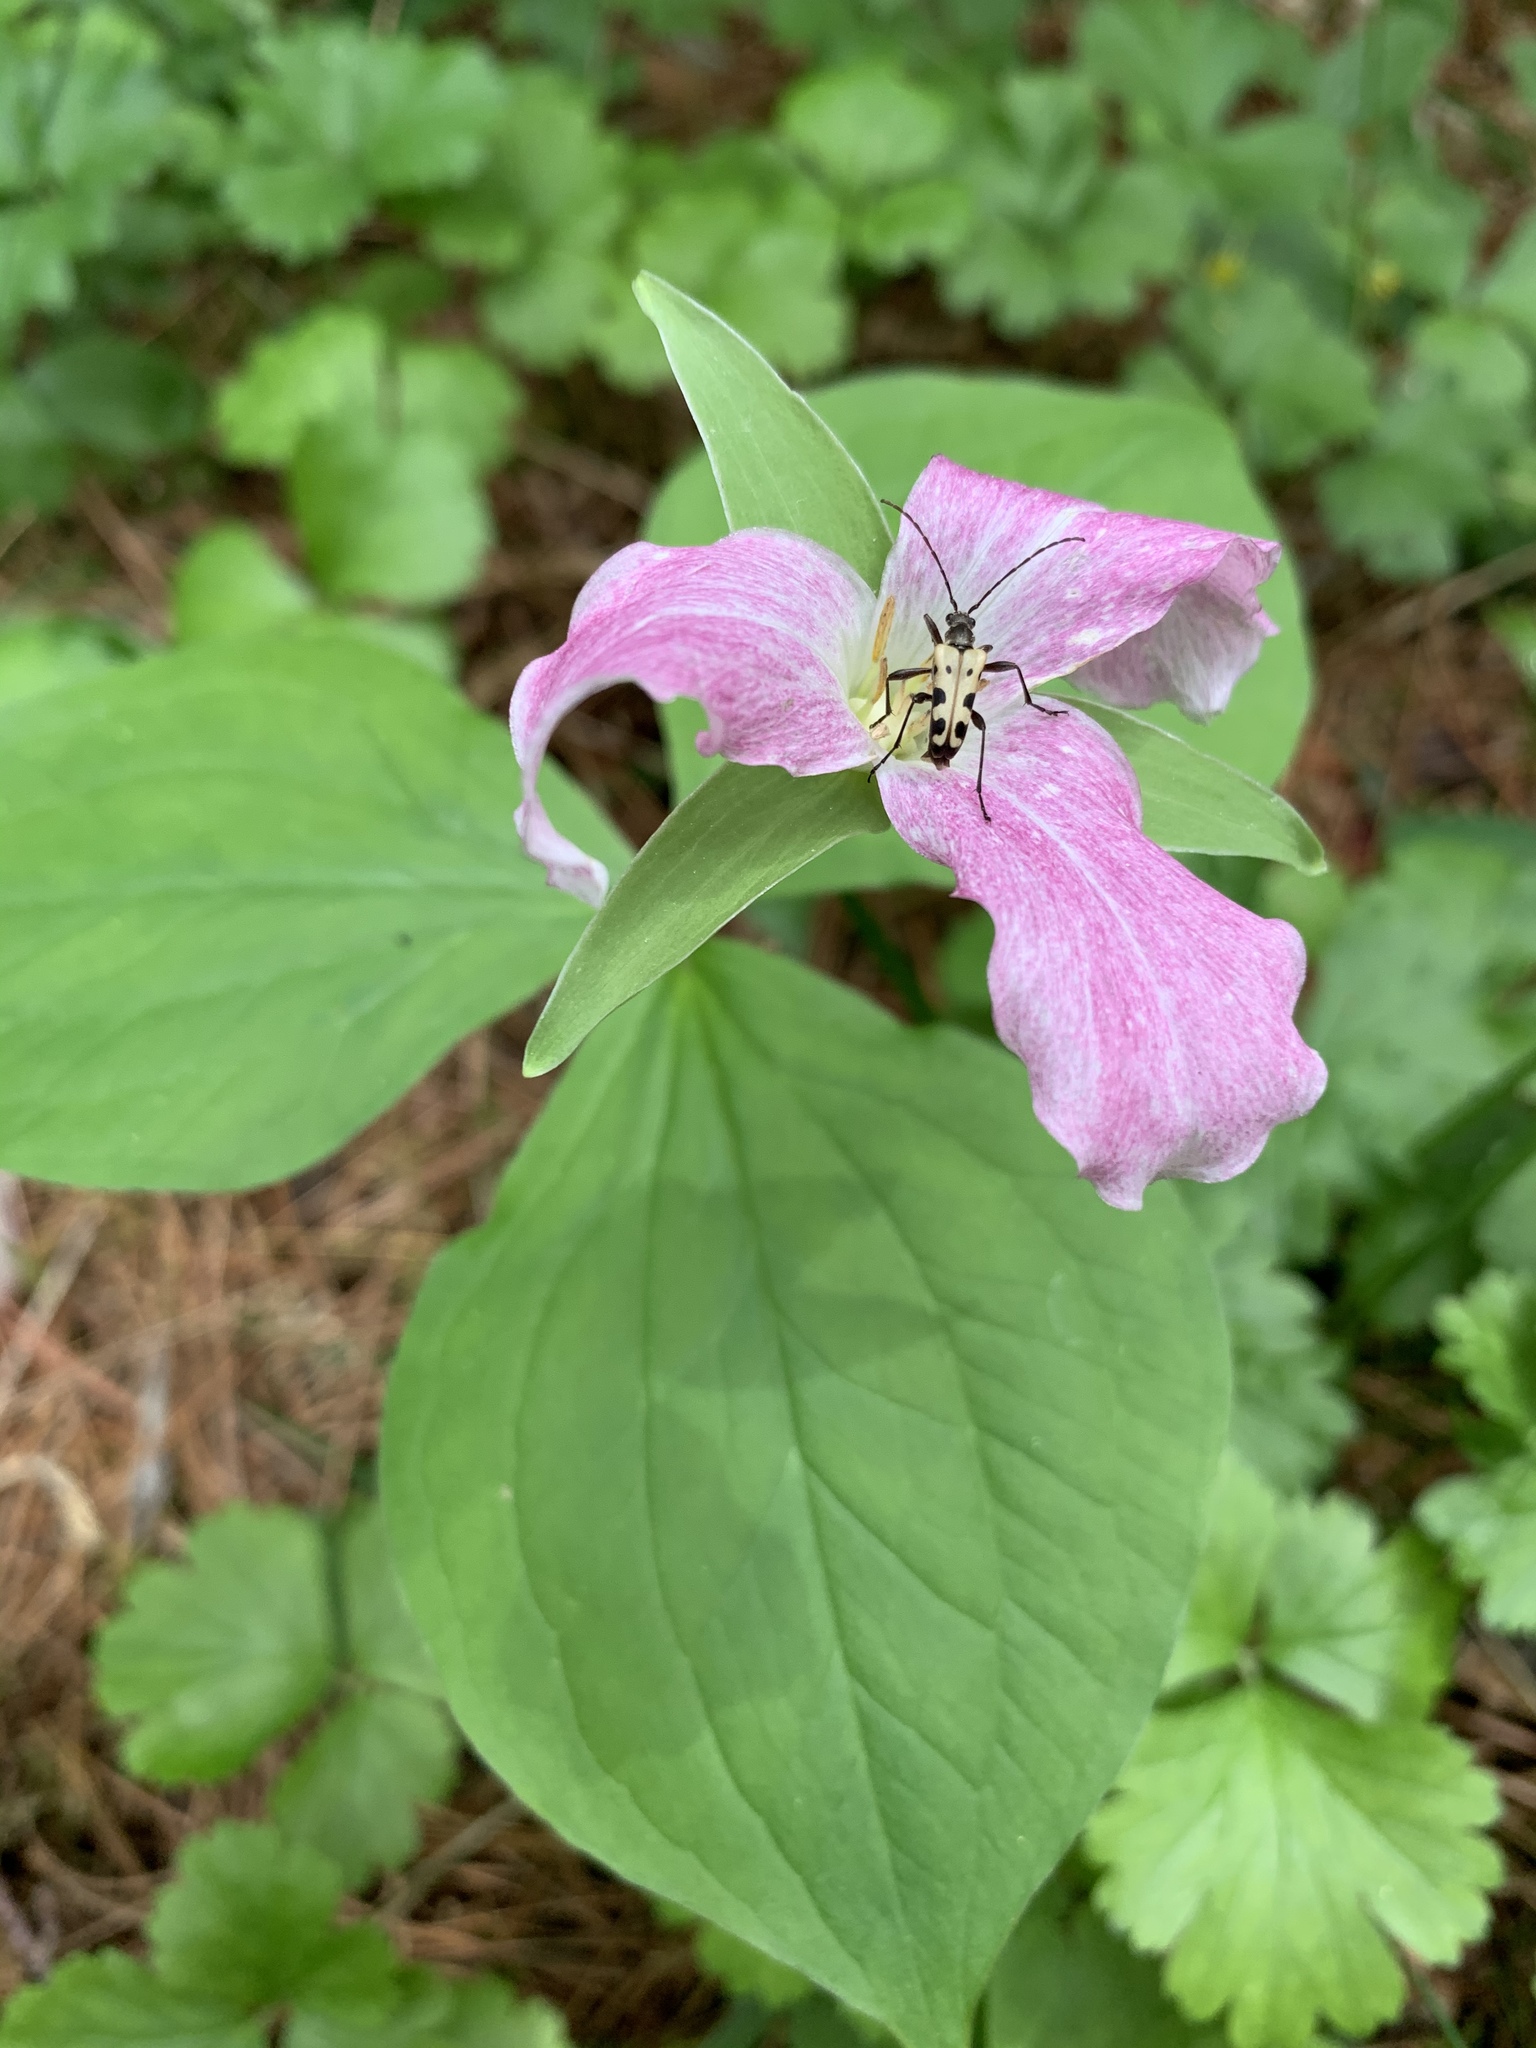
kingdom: Animalia
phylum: Arthropoda
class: Insecta
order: Coleoptera
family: Cerambycidae
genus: Evodinus
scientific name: Evodinus monticola
